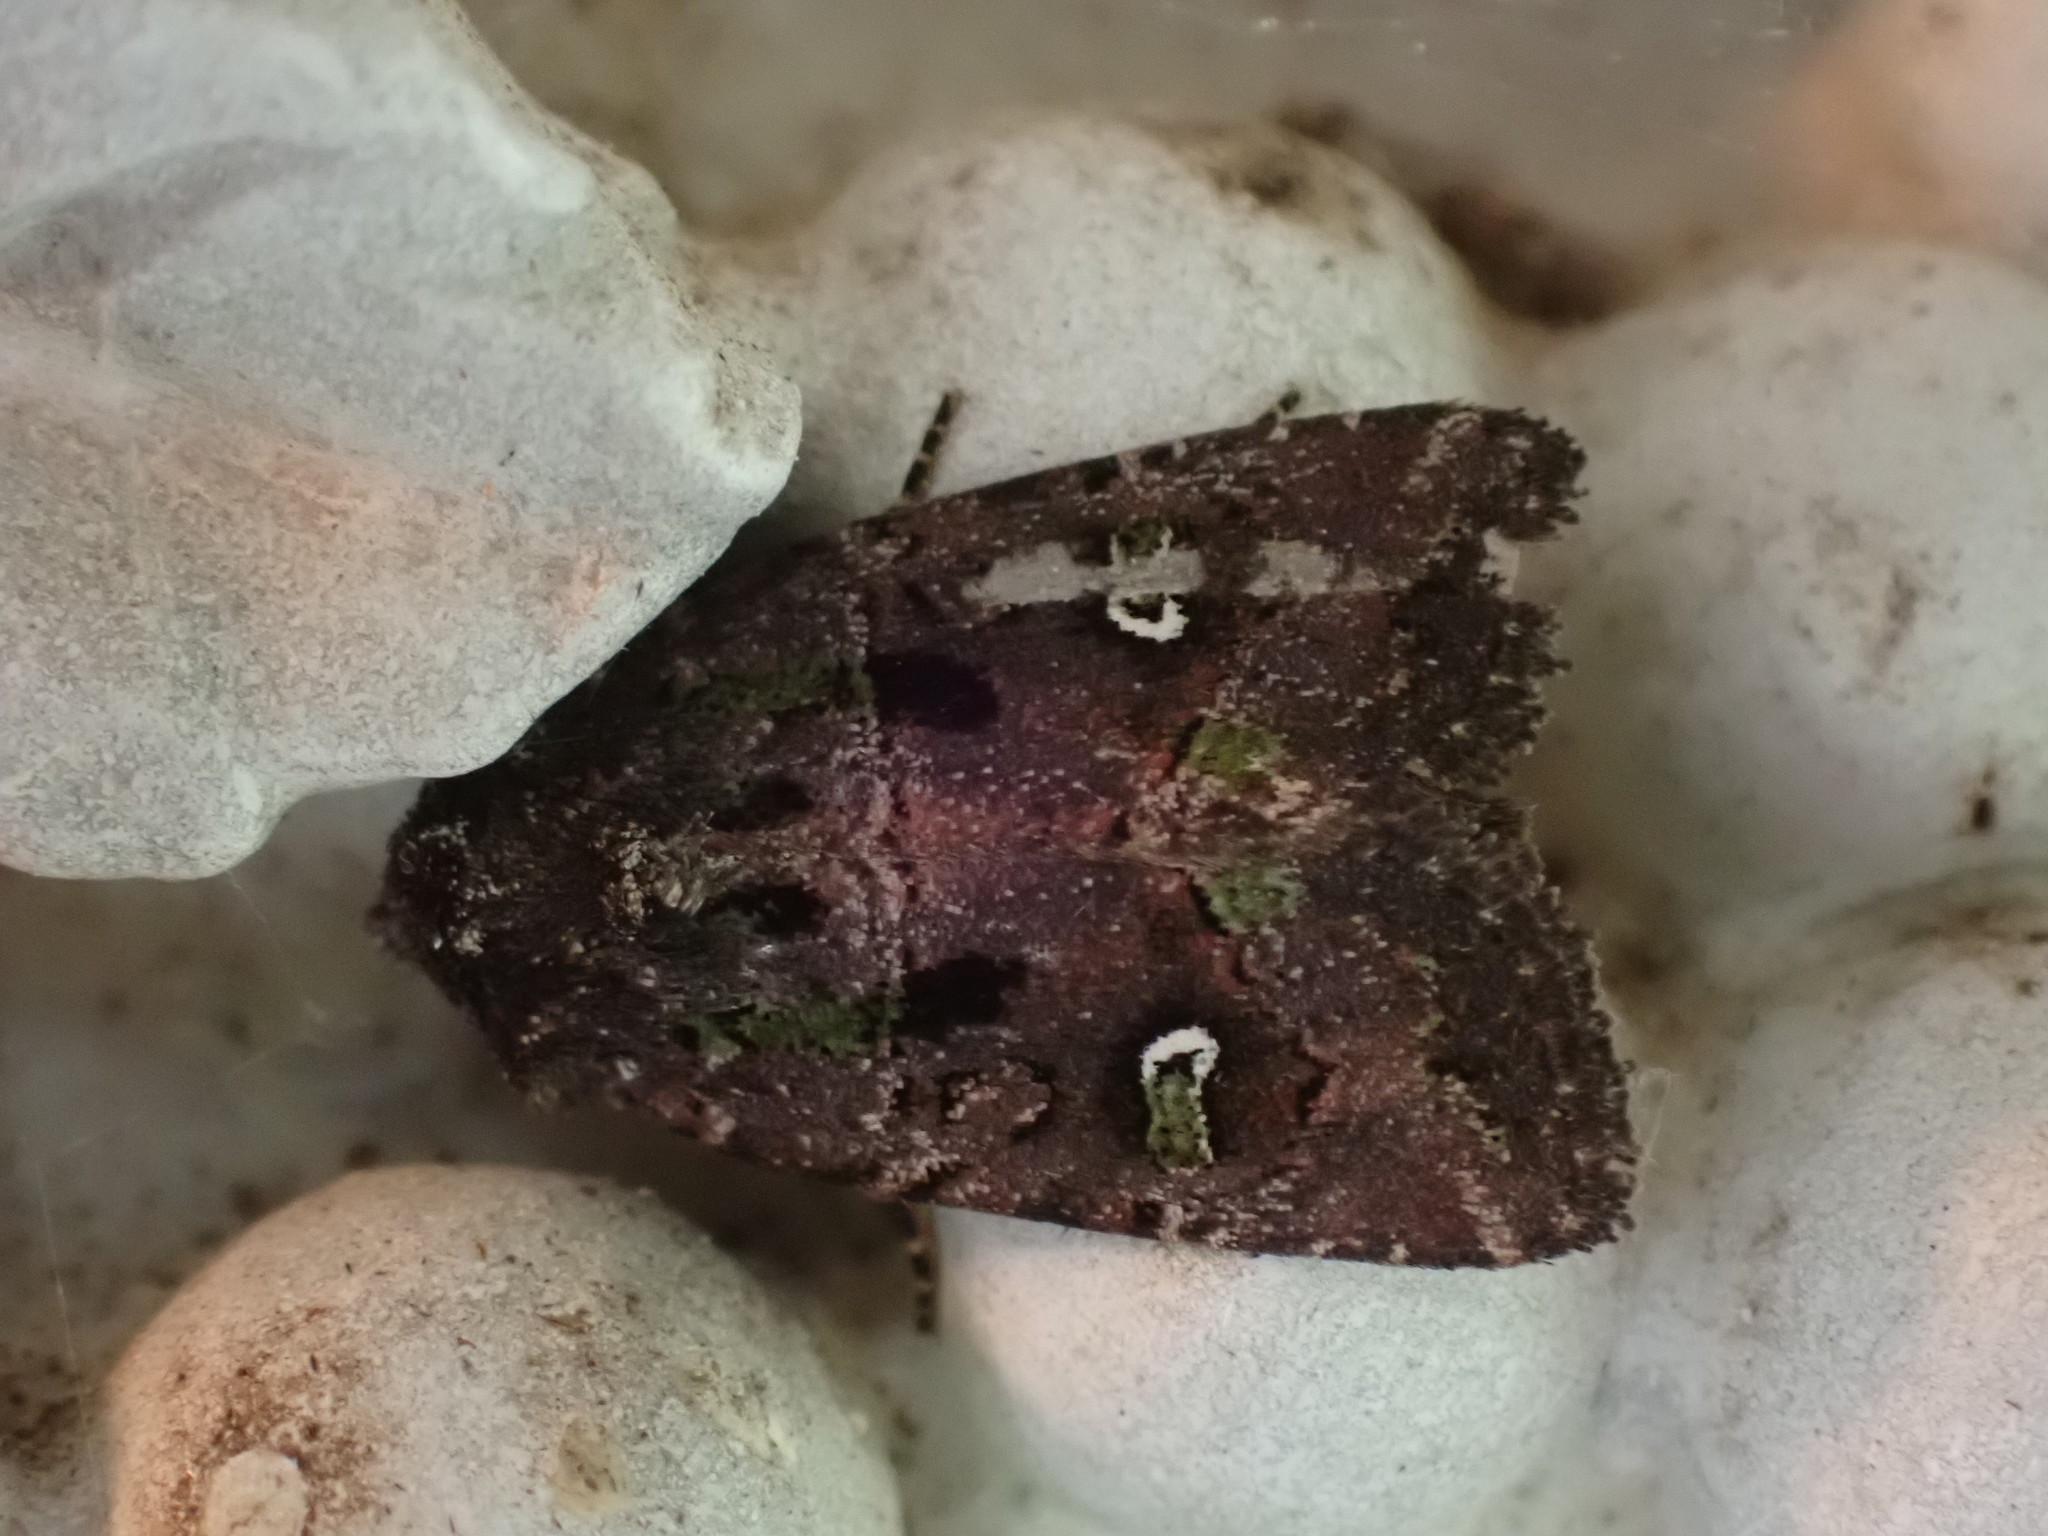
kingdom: Animalia
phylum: Arthropoda
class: Insecta
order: Lepidoptera
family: Noctuidae
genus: Lacinipolia
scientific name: Lacinipolia renigera
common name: Kidney-spotted minor
